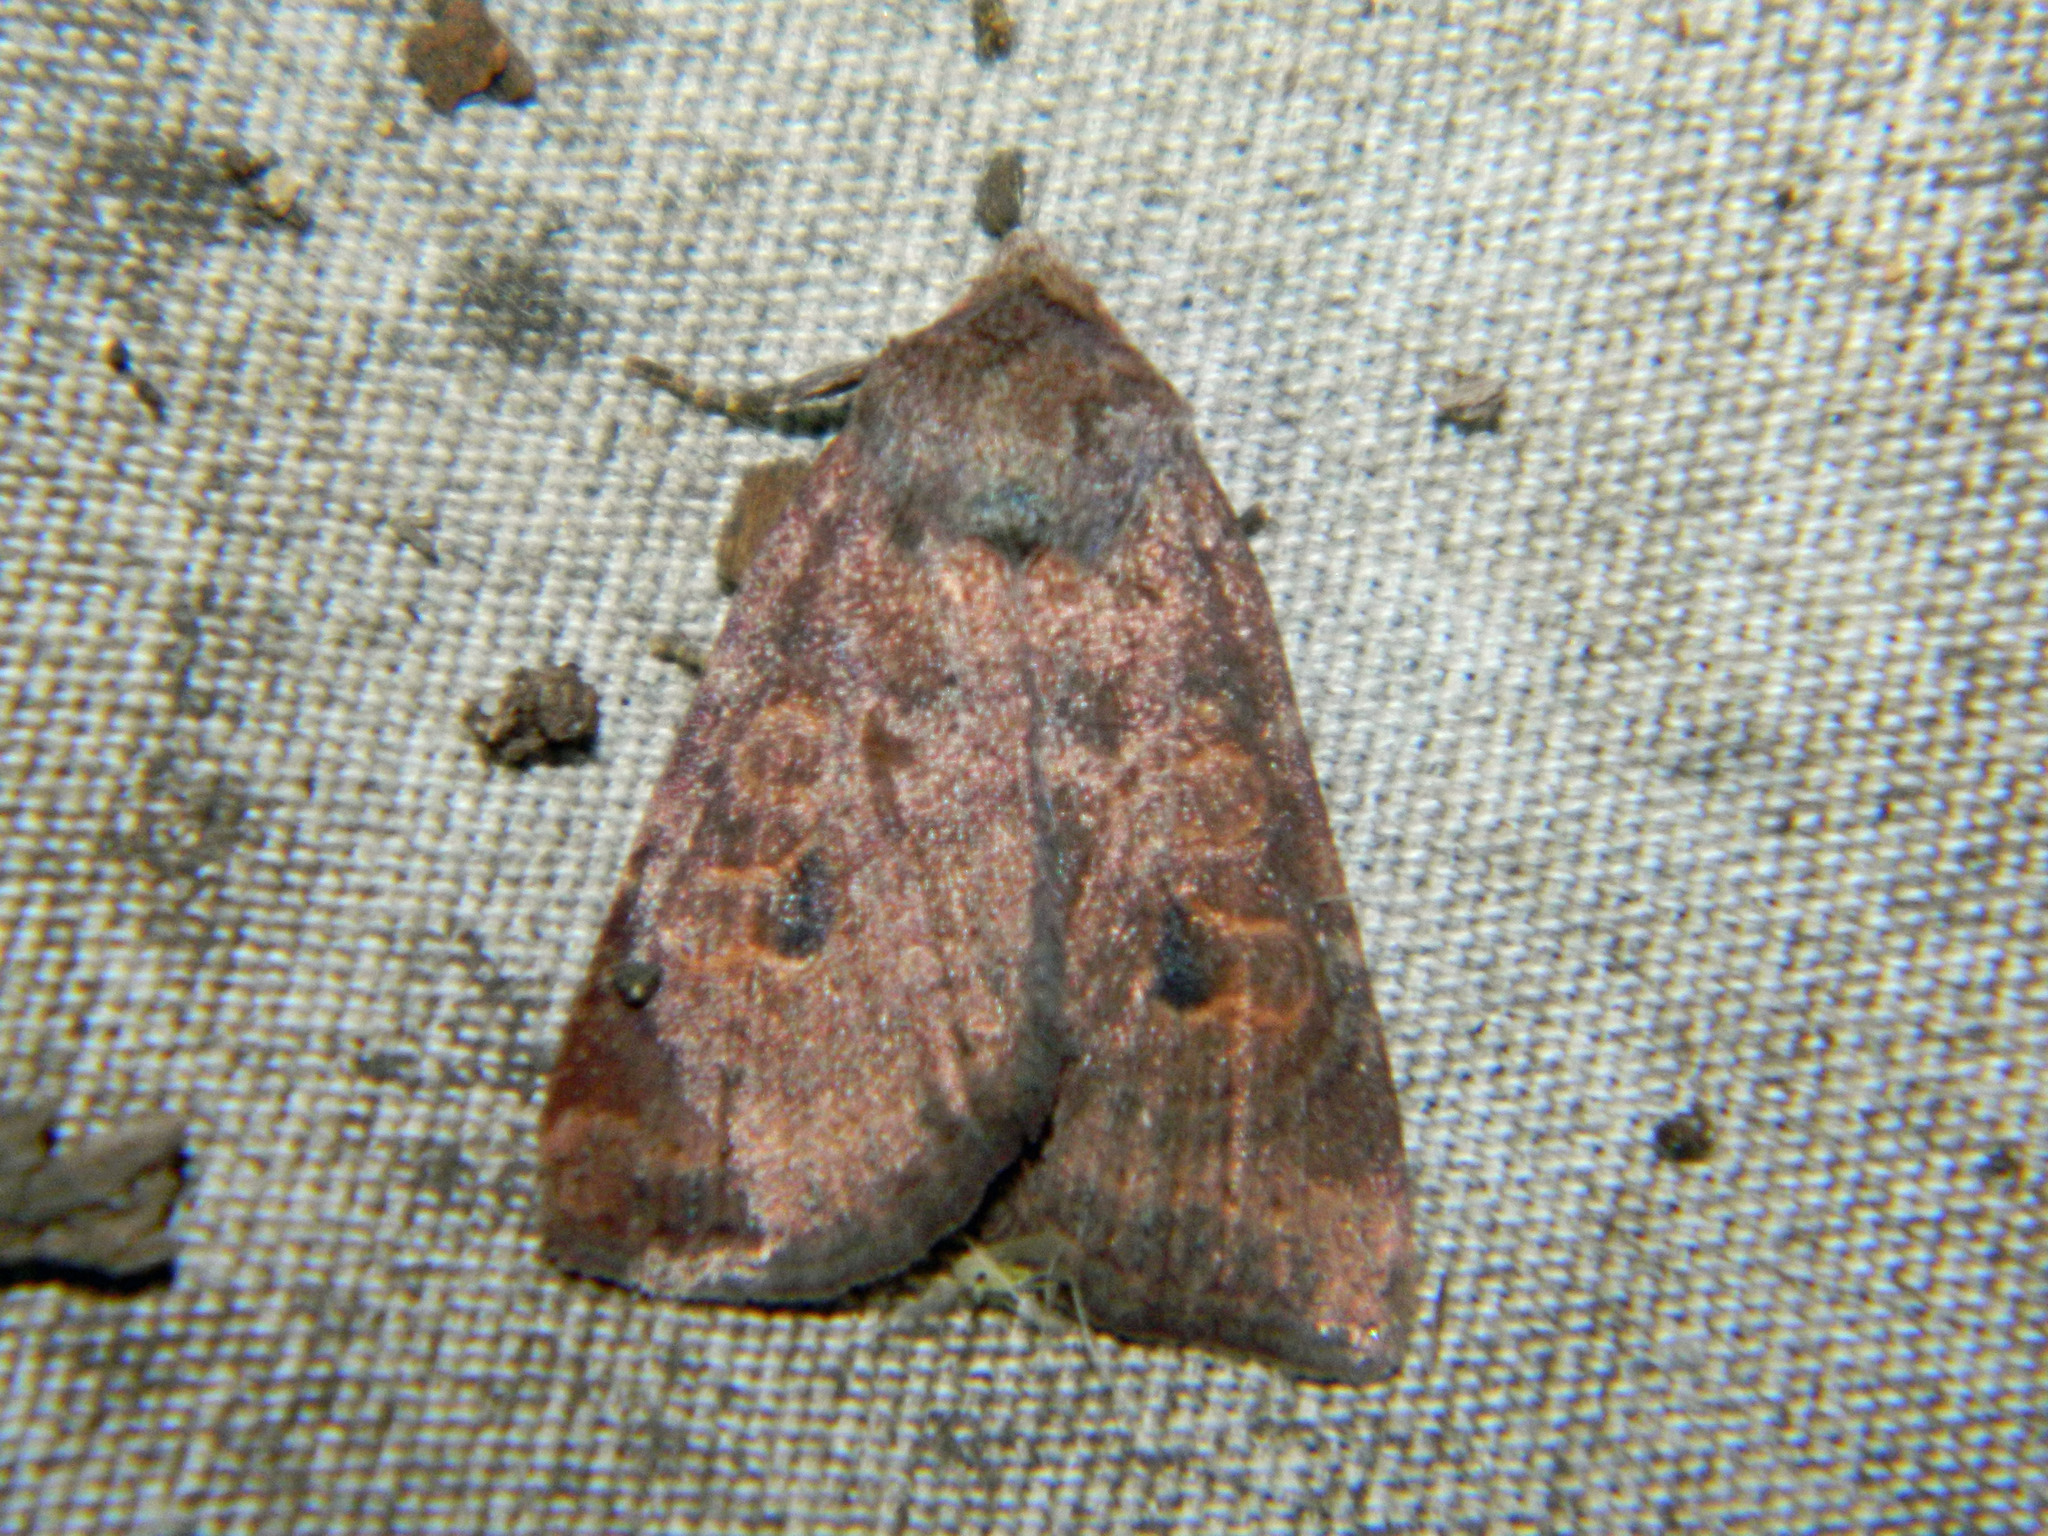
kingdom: Animalia
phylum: Arthropoda
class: Insecta
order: Lepidoptera
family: Noctuidae
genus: Xestia
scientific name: Xestia smithii
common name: Smith's dart
